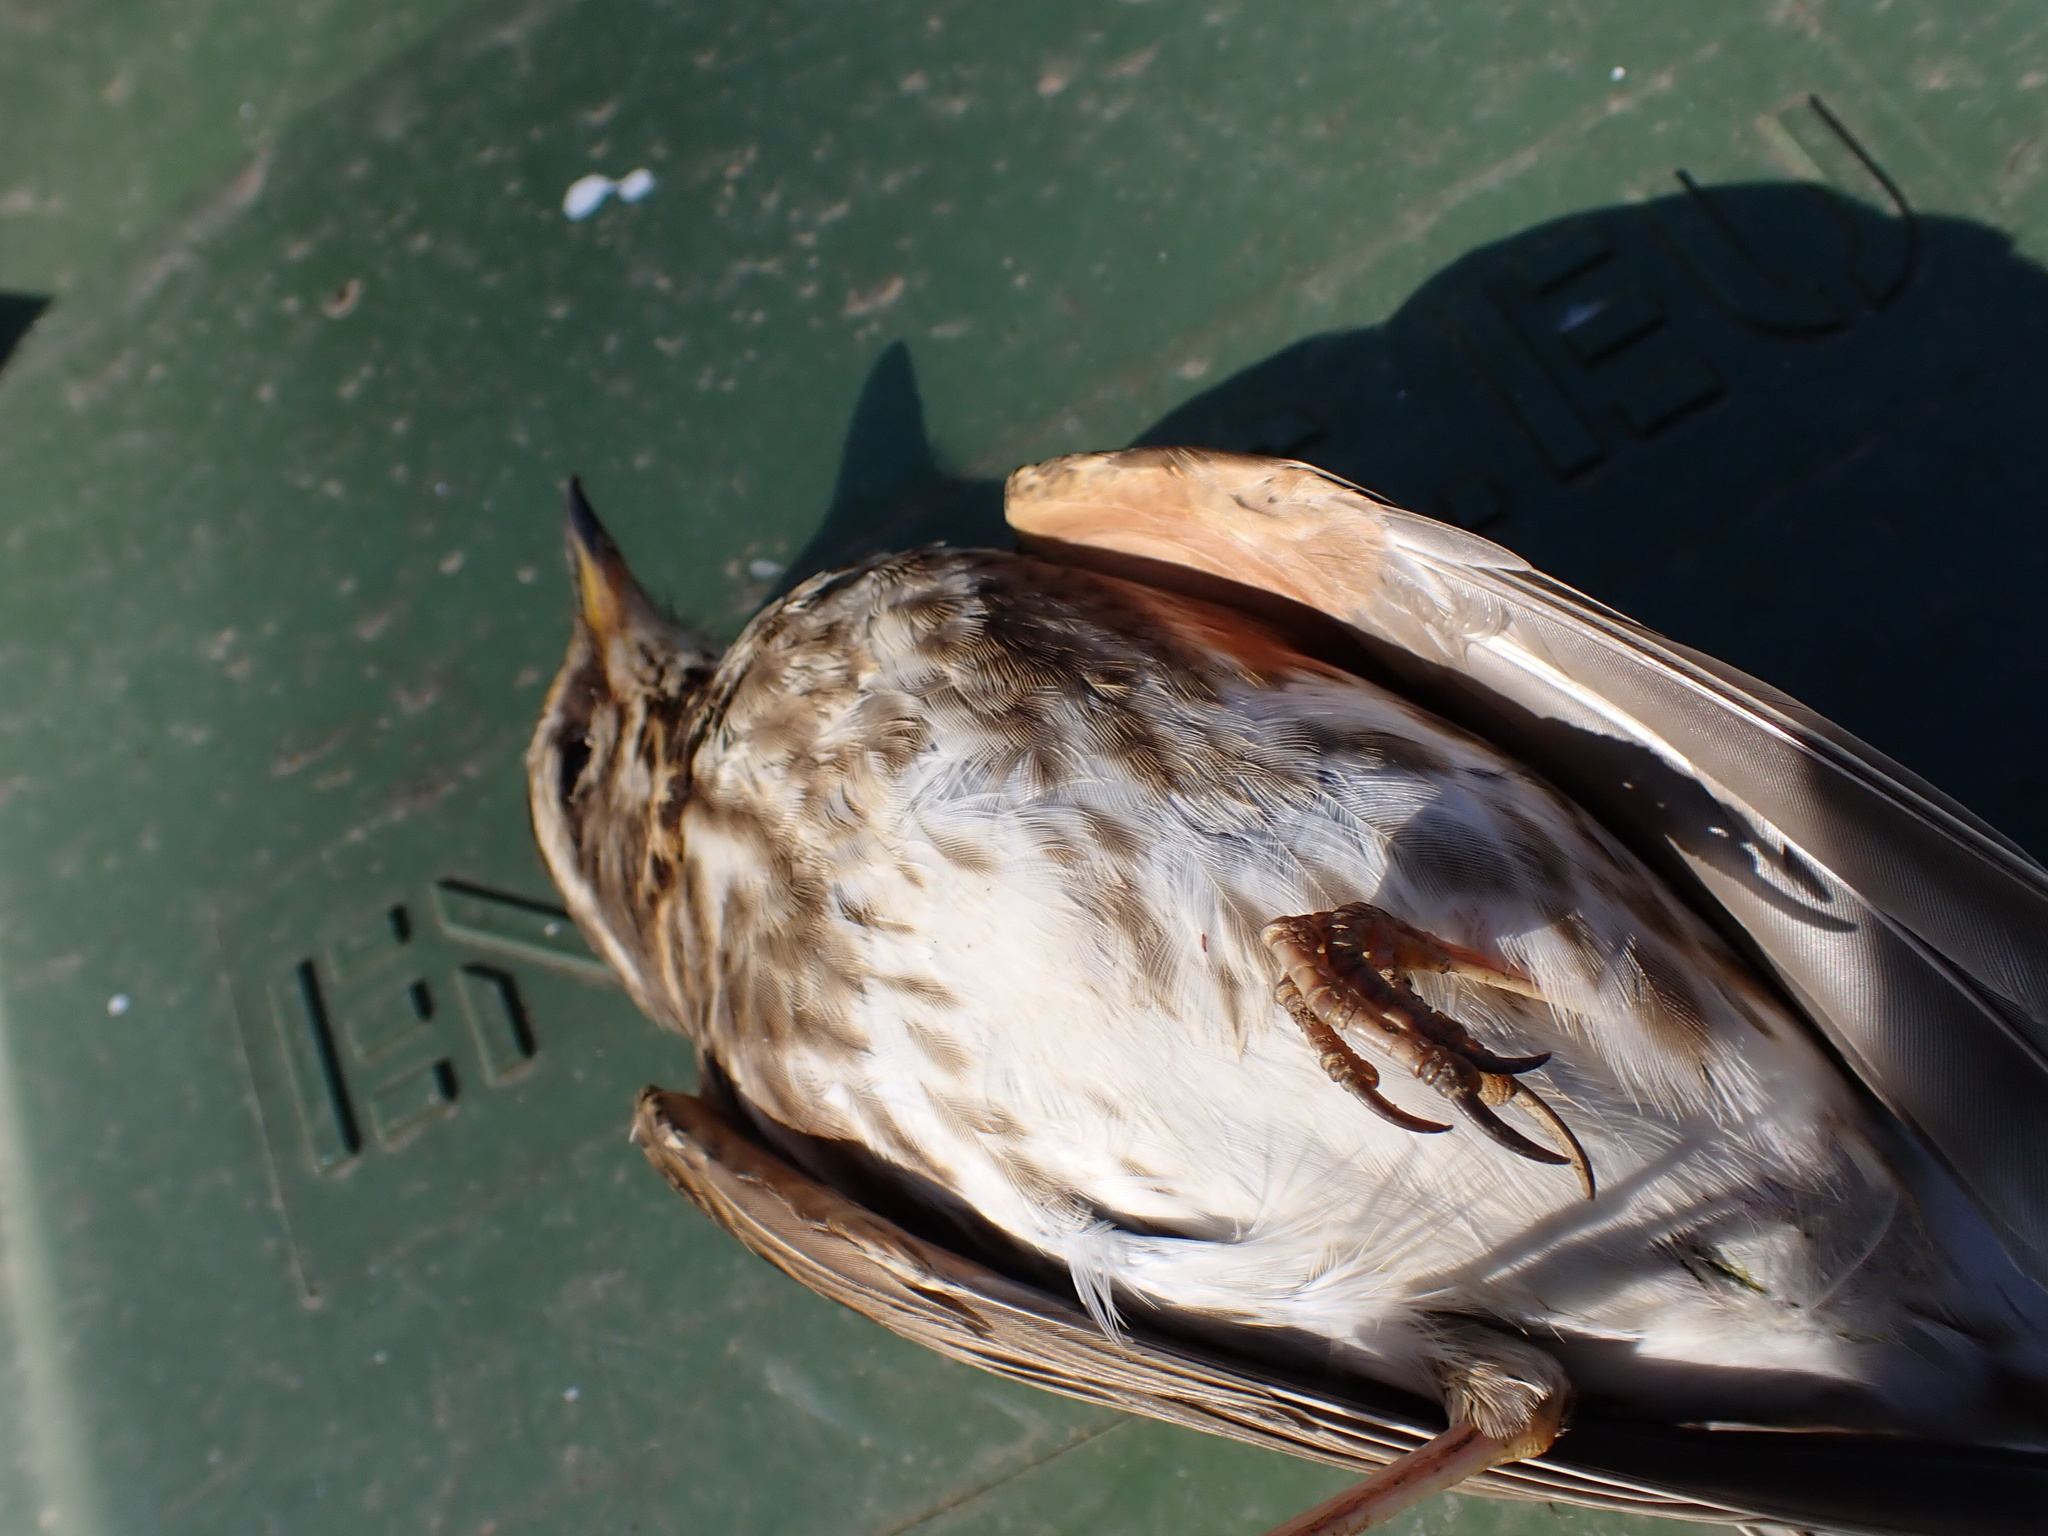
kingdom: Animalia
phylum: Chordata
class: Aves
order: Passeriformes
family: Turdidae
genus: Turdus
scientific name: Turdus iliacus
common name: Redwing
